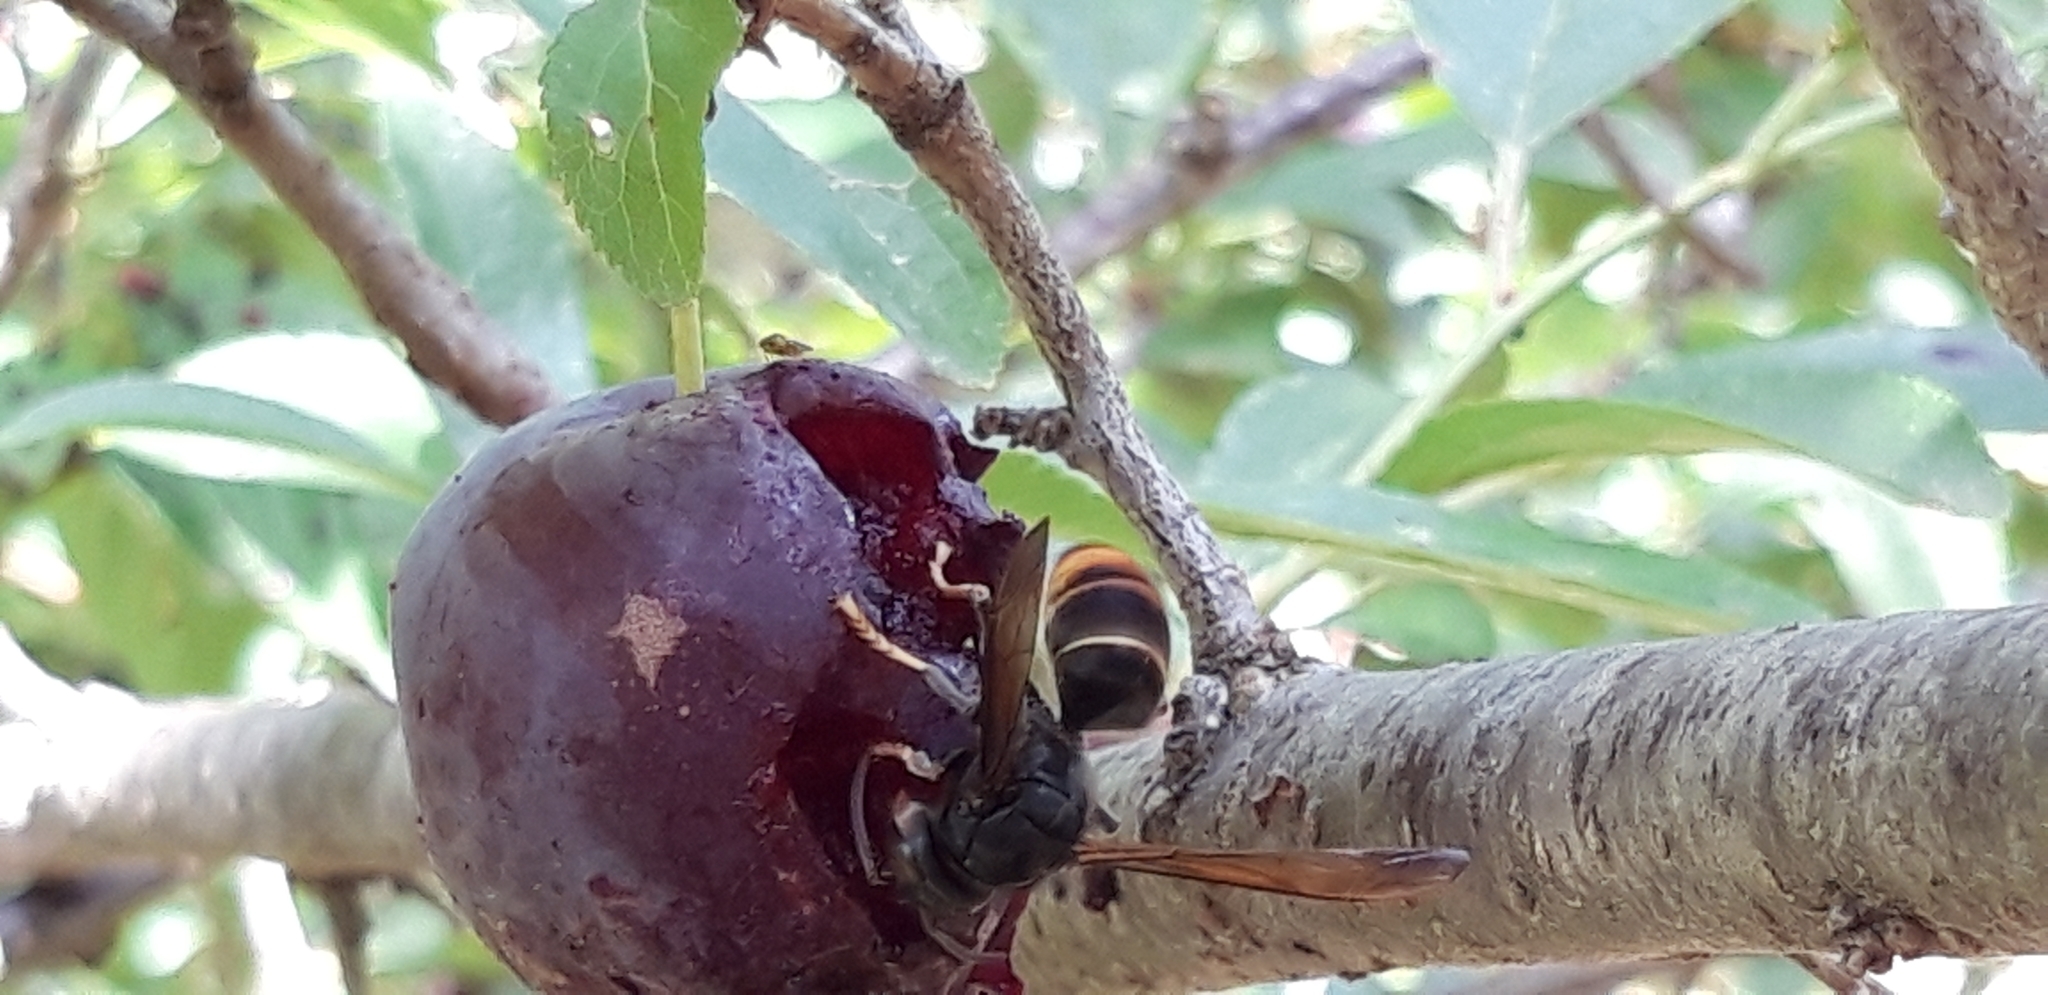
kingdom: Animalia
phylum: Arthropoda
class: Insecta
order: Hymenoptera
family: Vespidae
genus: Vespa
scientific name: Vespa velutina
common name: Asian hornet
